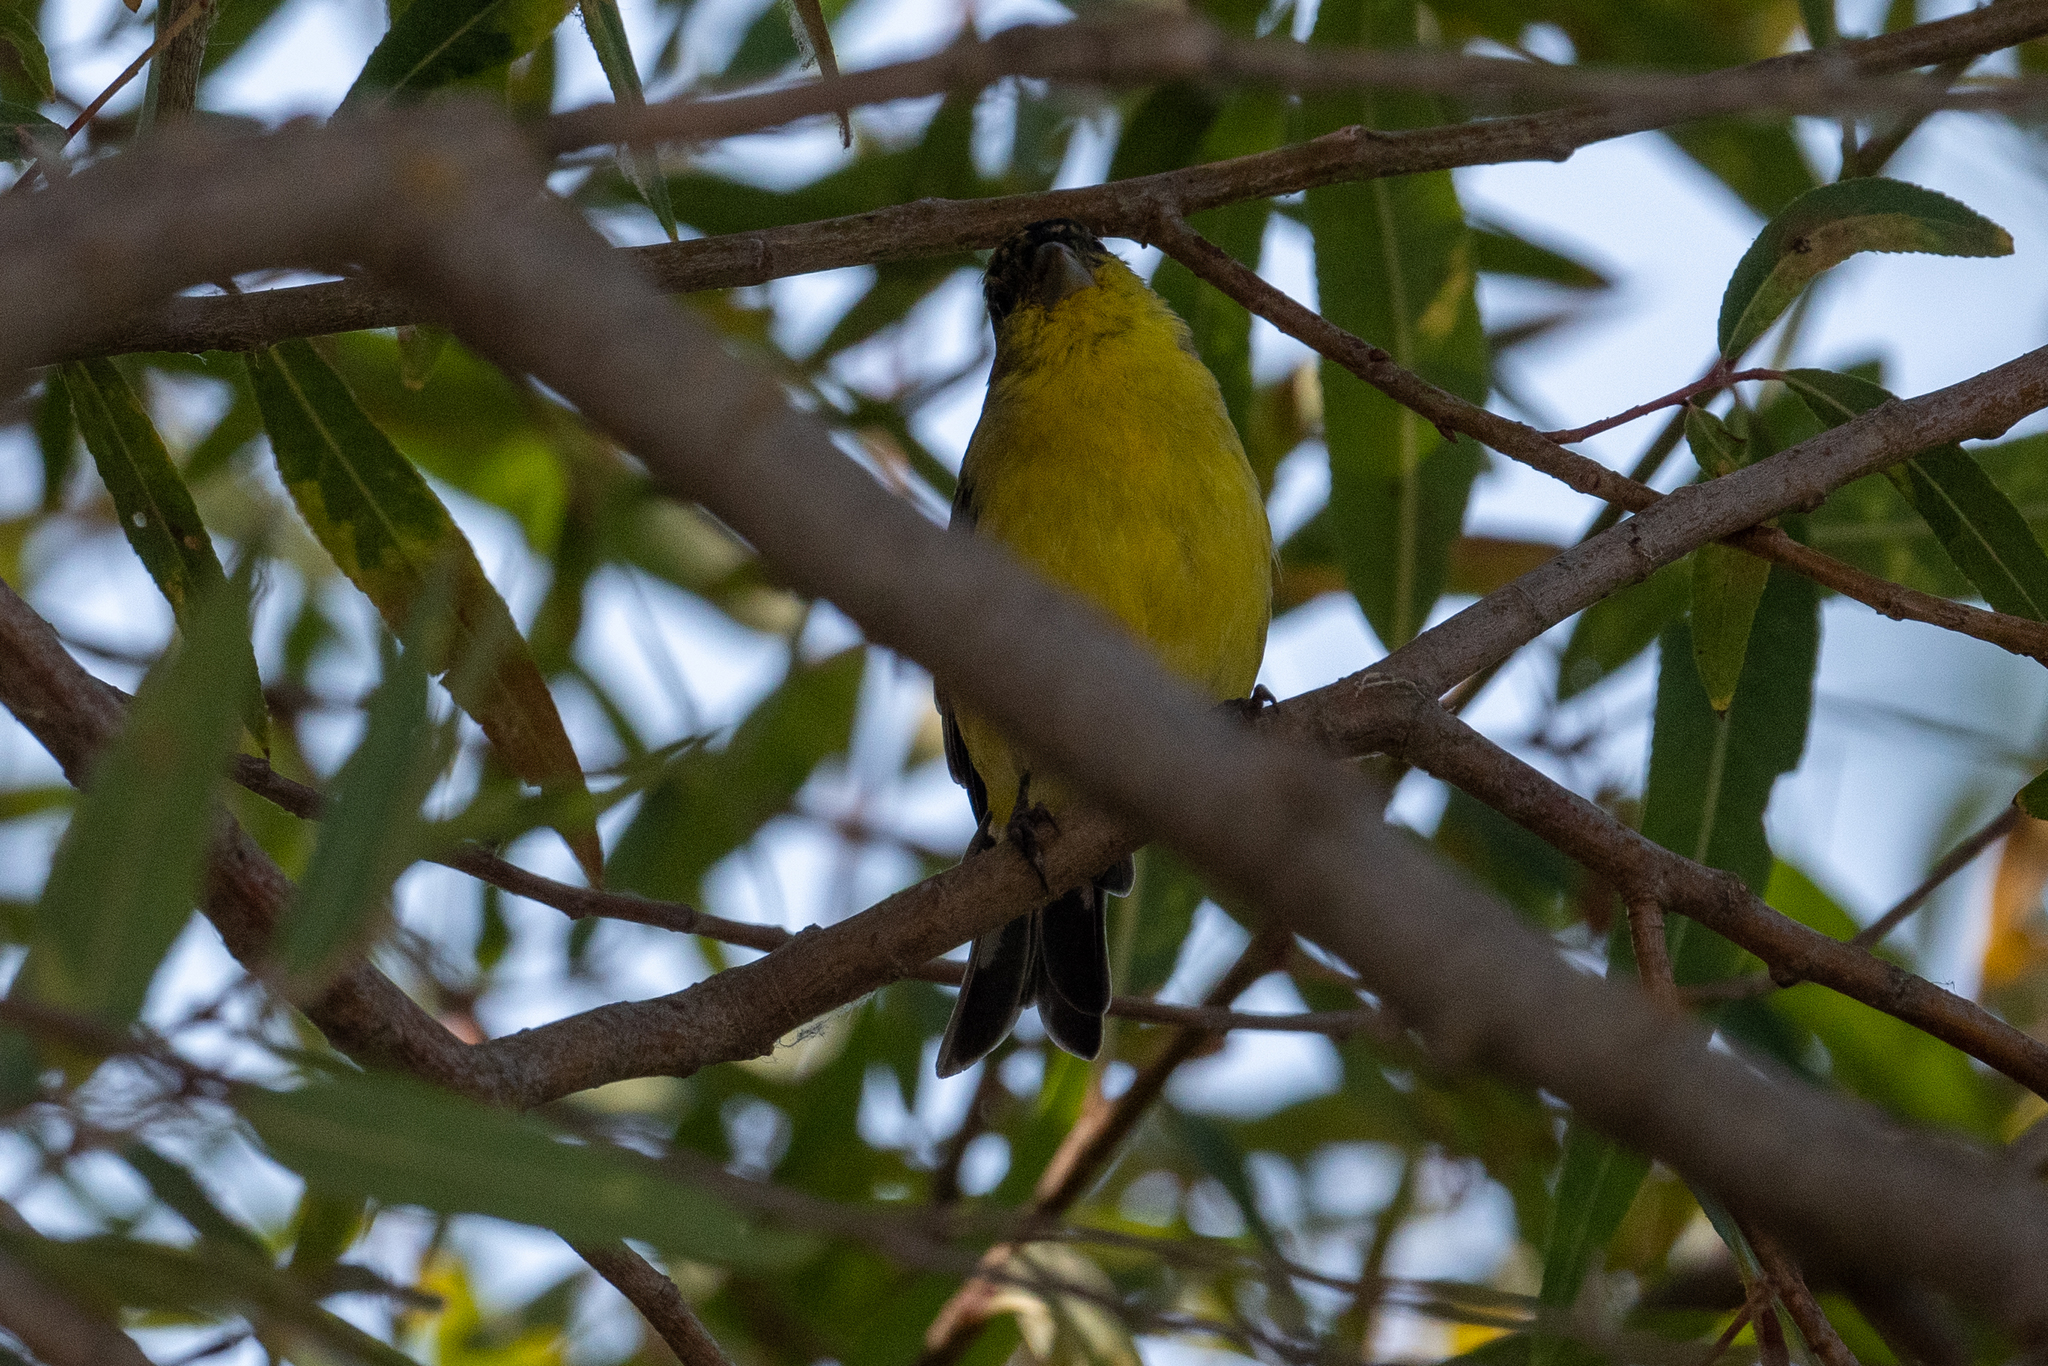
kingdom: Animalia
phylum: Chordata
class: Aves
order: Passeriformes
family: Fringillidae
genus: Spinus
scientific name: Spinus psaltria
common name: Lesser goldfinch
